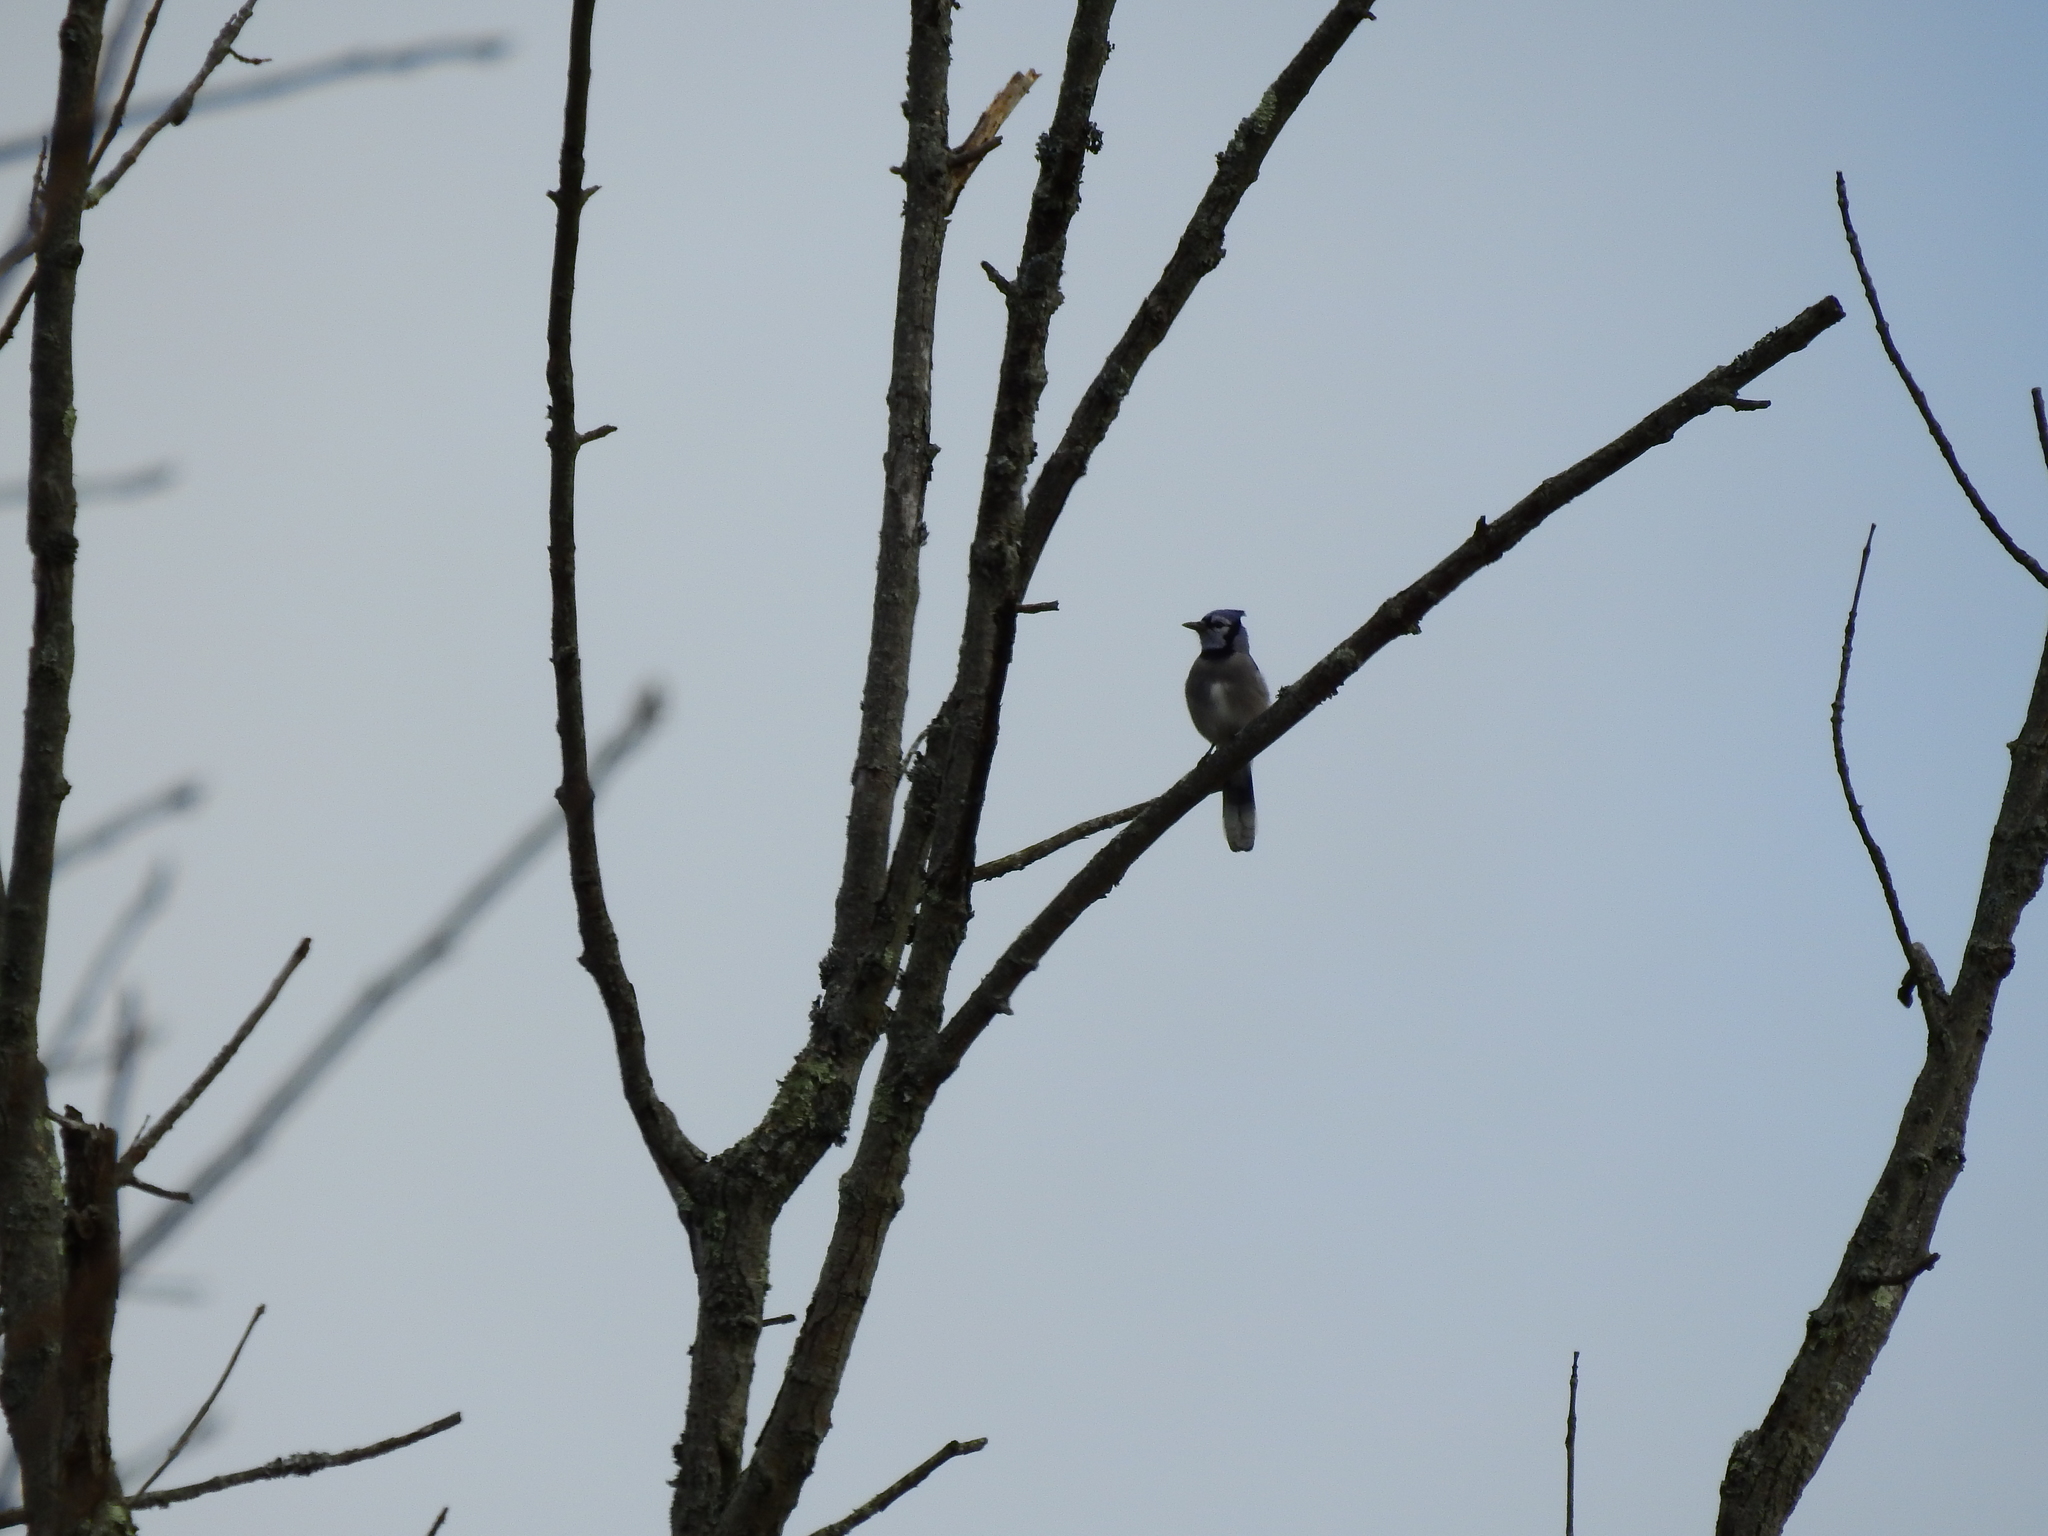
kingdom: Animalia
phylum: Chordata
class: Aves
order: Passeriformes
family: Corvidae
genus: Cyanocitta
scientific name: Cyanocitta cristata
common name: Blue jay
